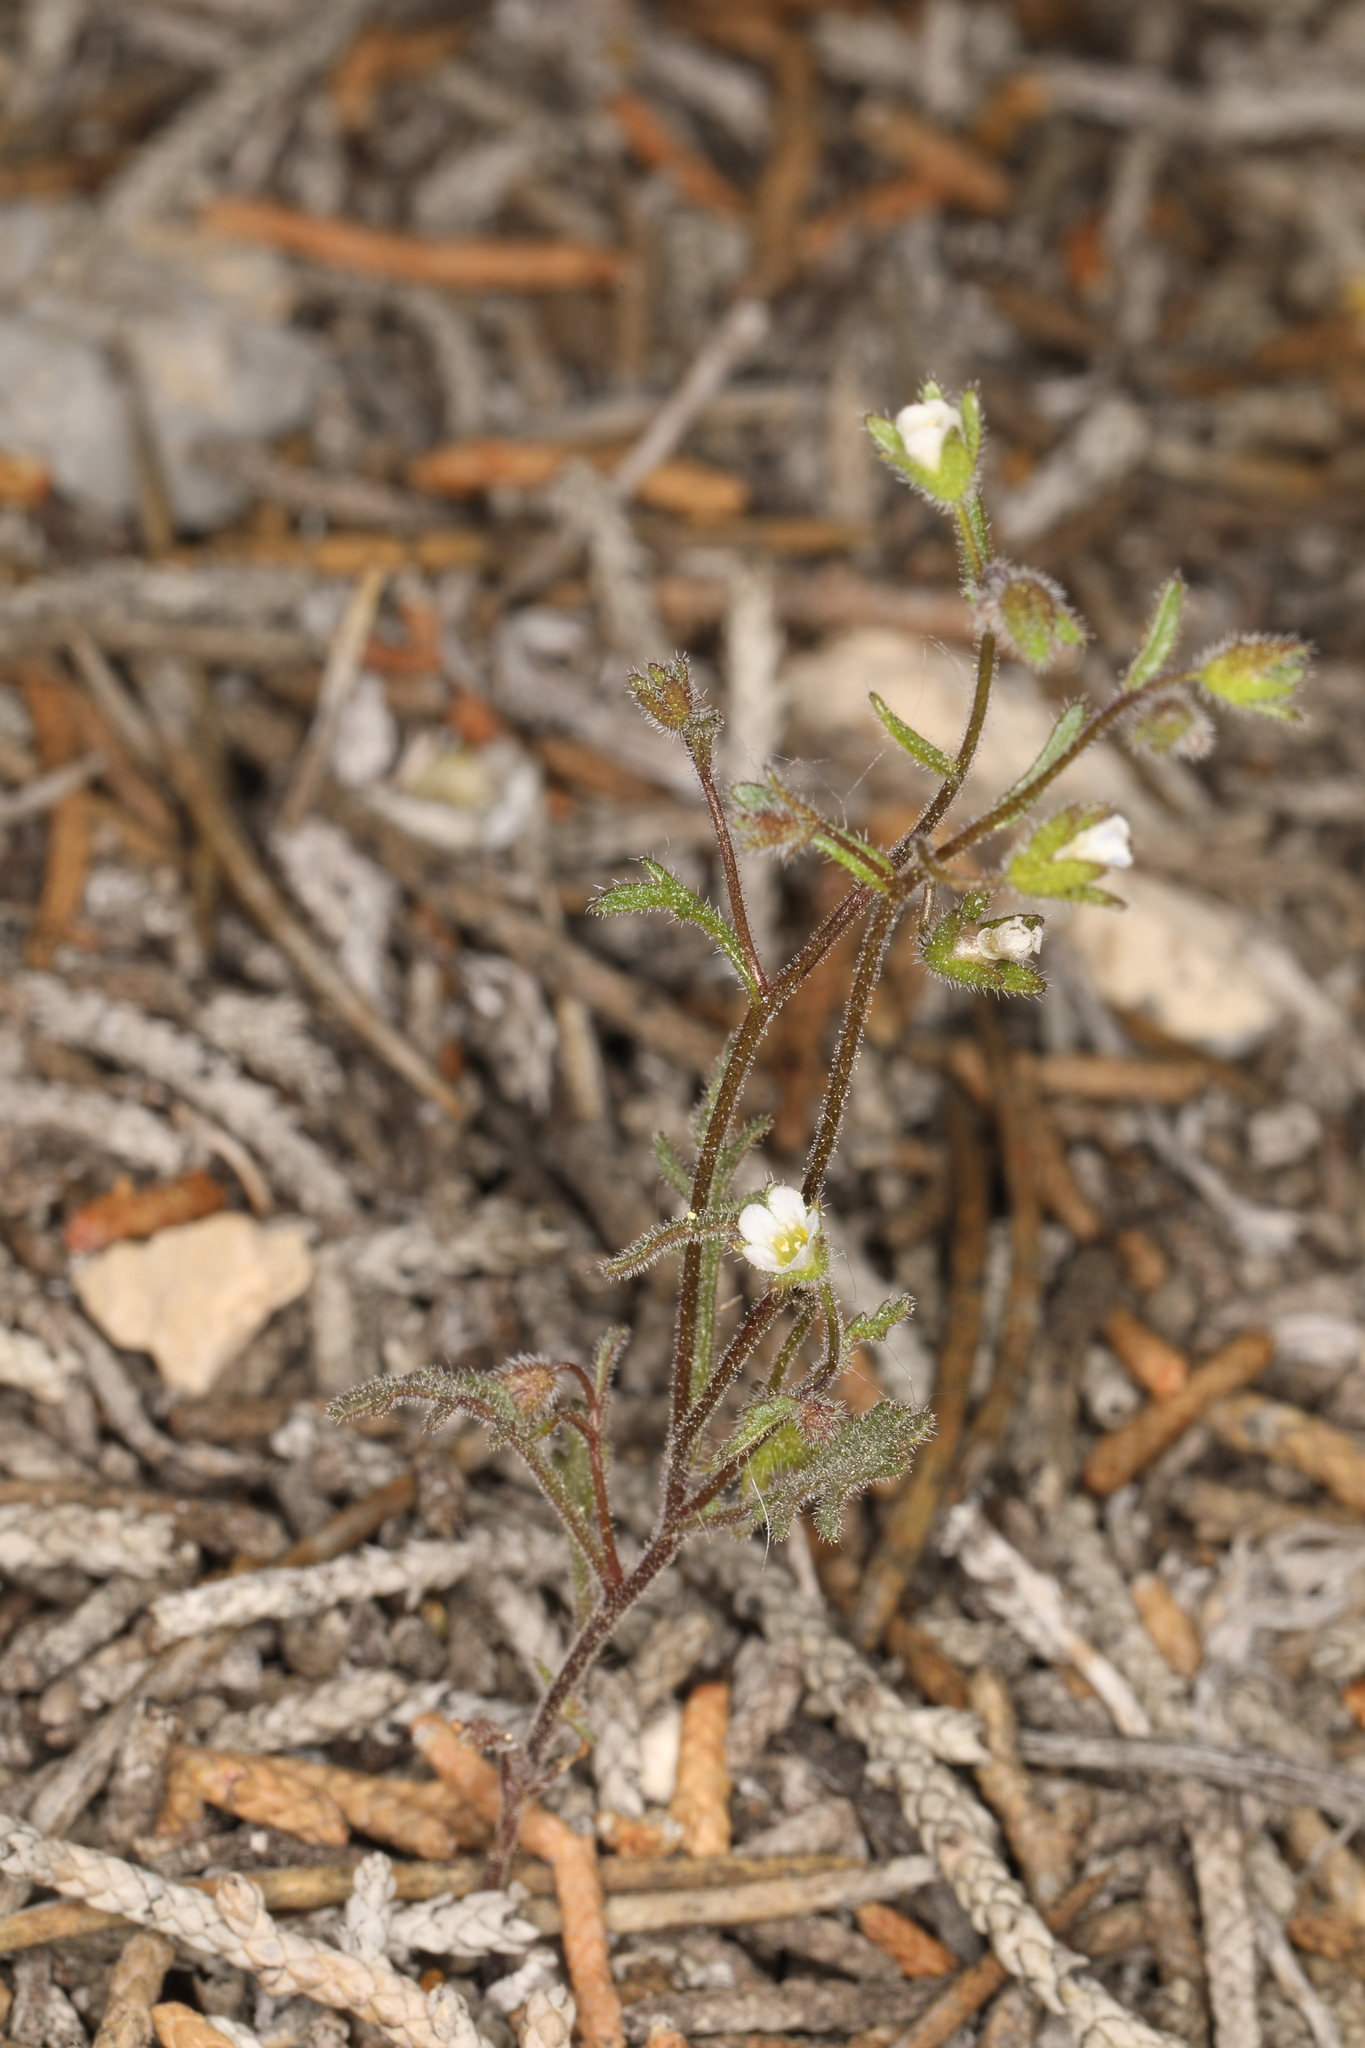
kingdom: Plantae
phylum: Tracheophyta
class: Magnoliopsida
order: Boraginales
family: Hydrophyllaceae
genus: Eucrypta
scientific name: Eucrypta micrantha
